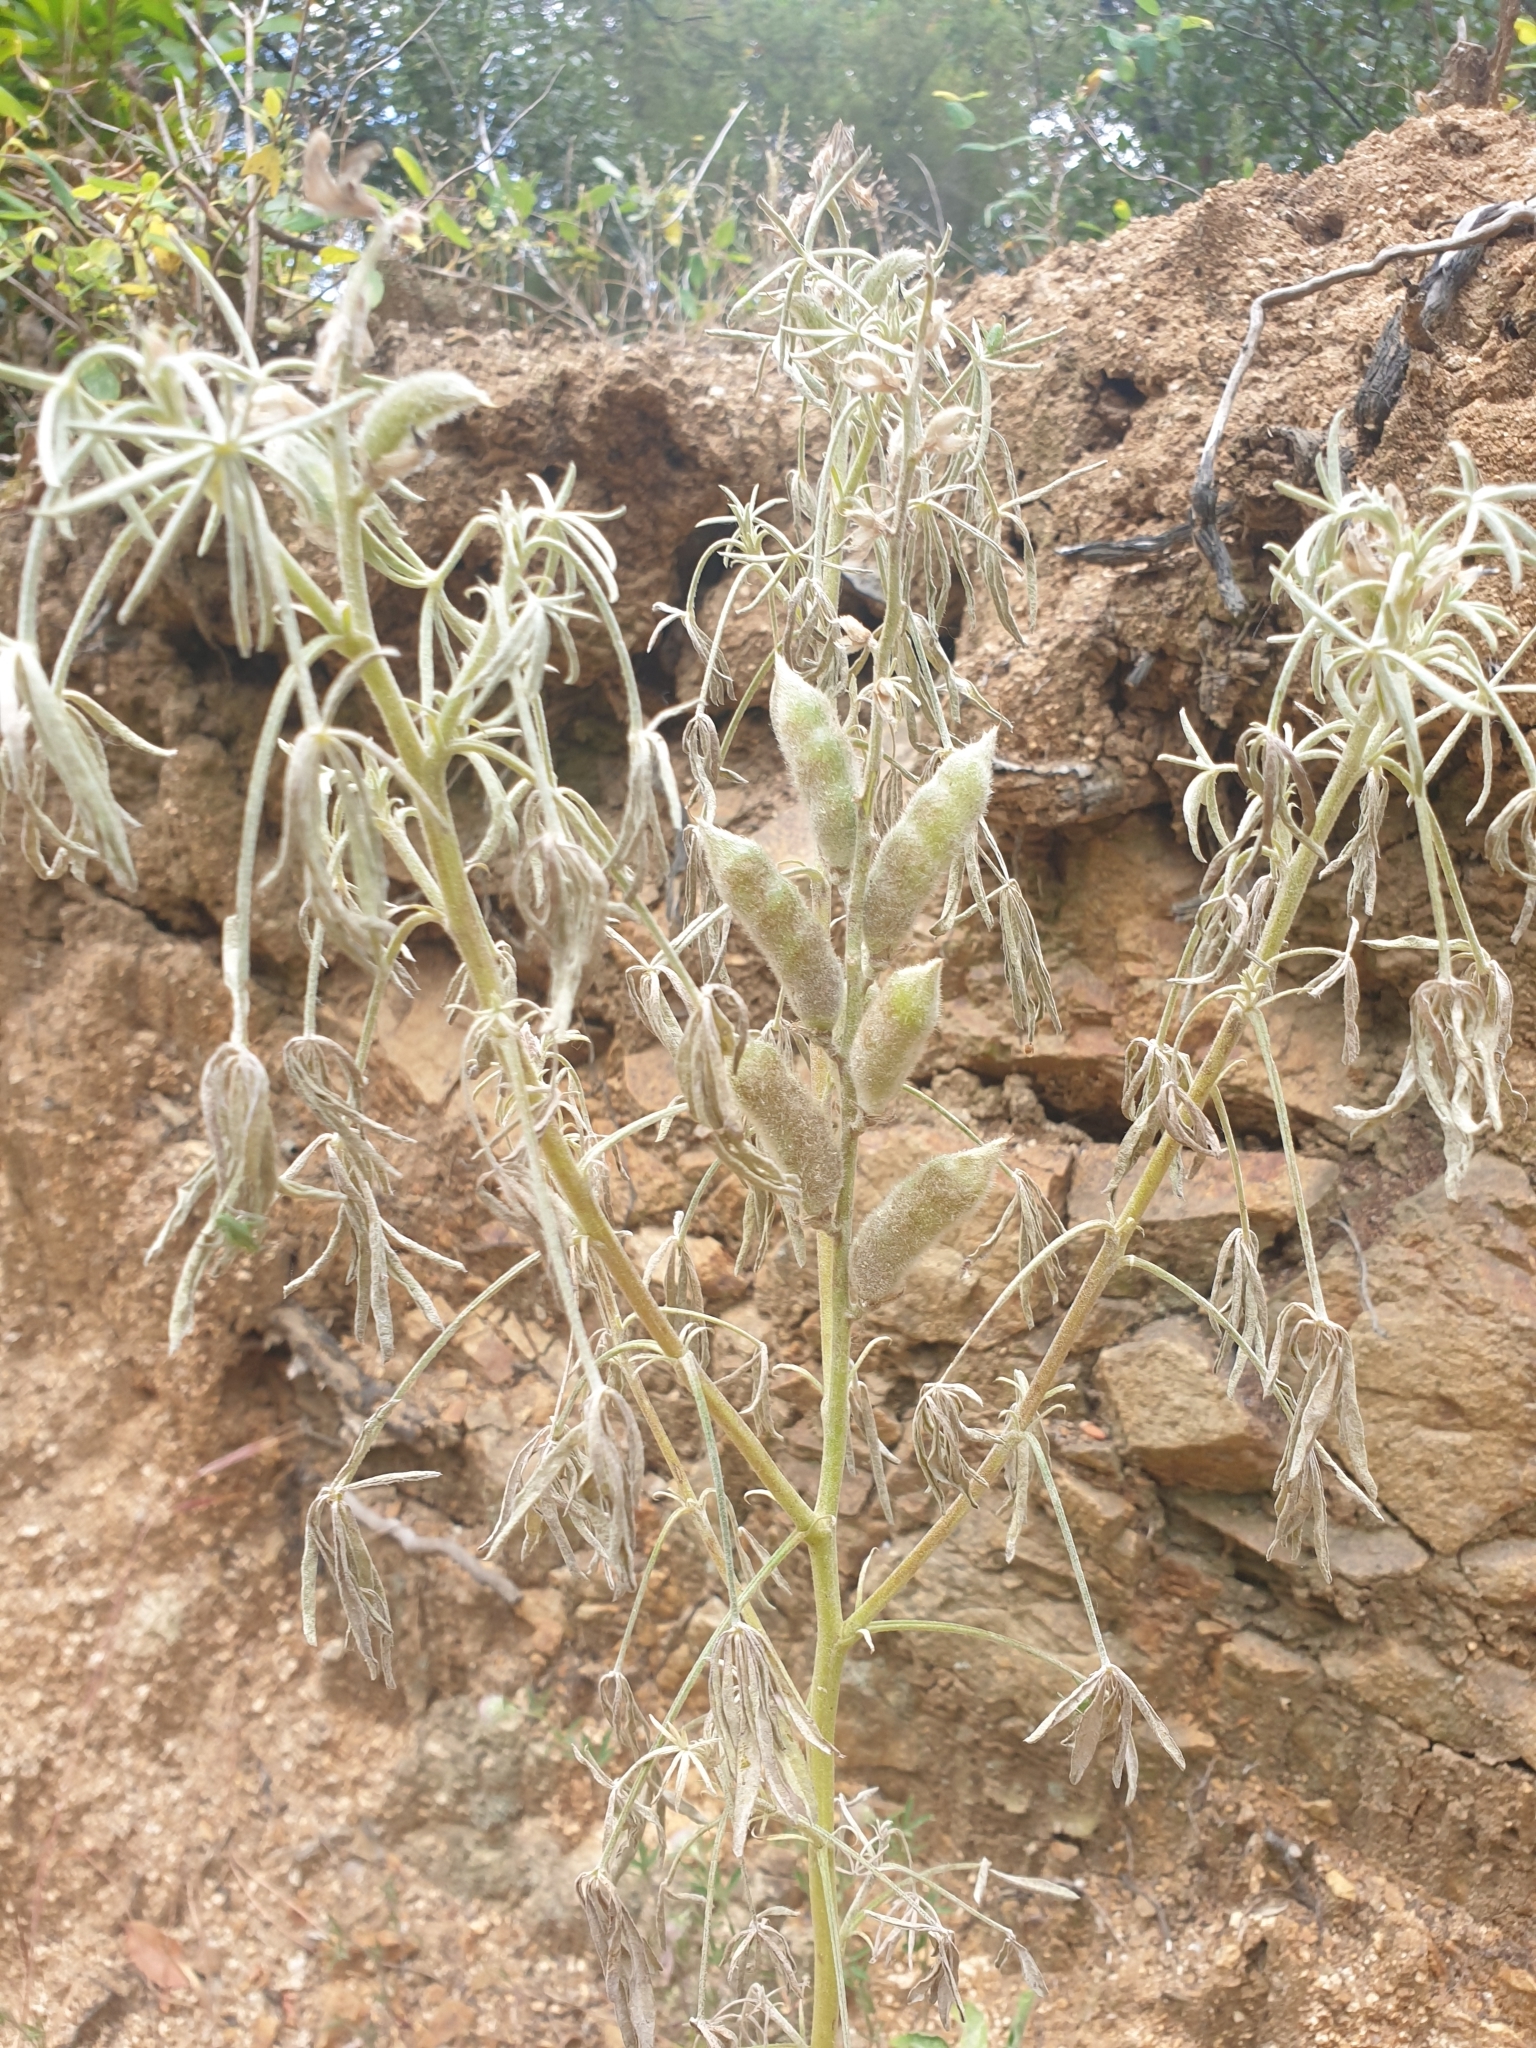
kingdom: Plantae
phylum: Tracheophyta
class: Magnoliopsida
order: Fabales
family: Fabaceae
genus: Lupinus
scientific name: Lupinus angustifolius
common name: Narrow-leaved lupin
